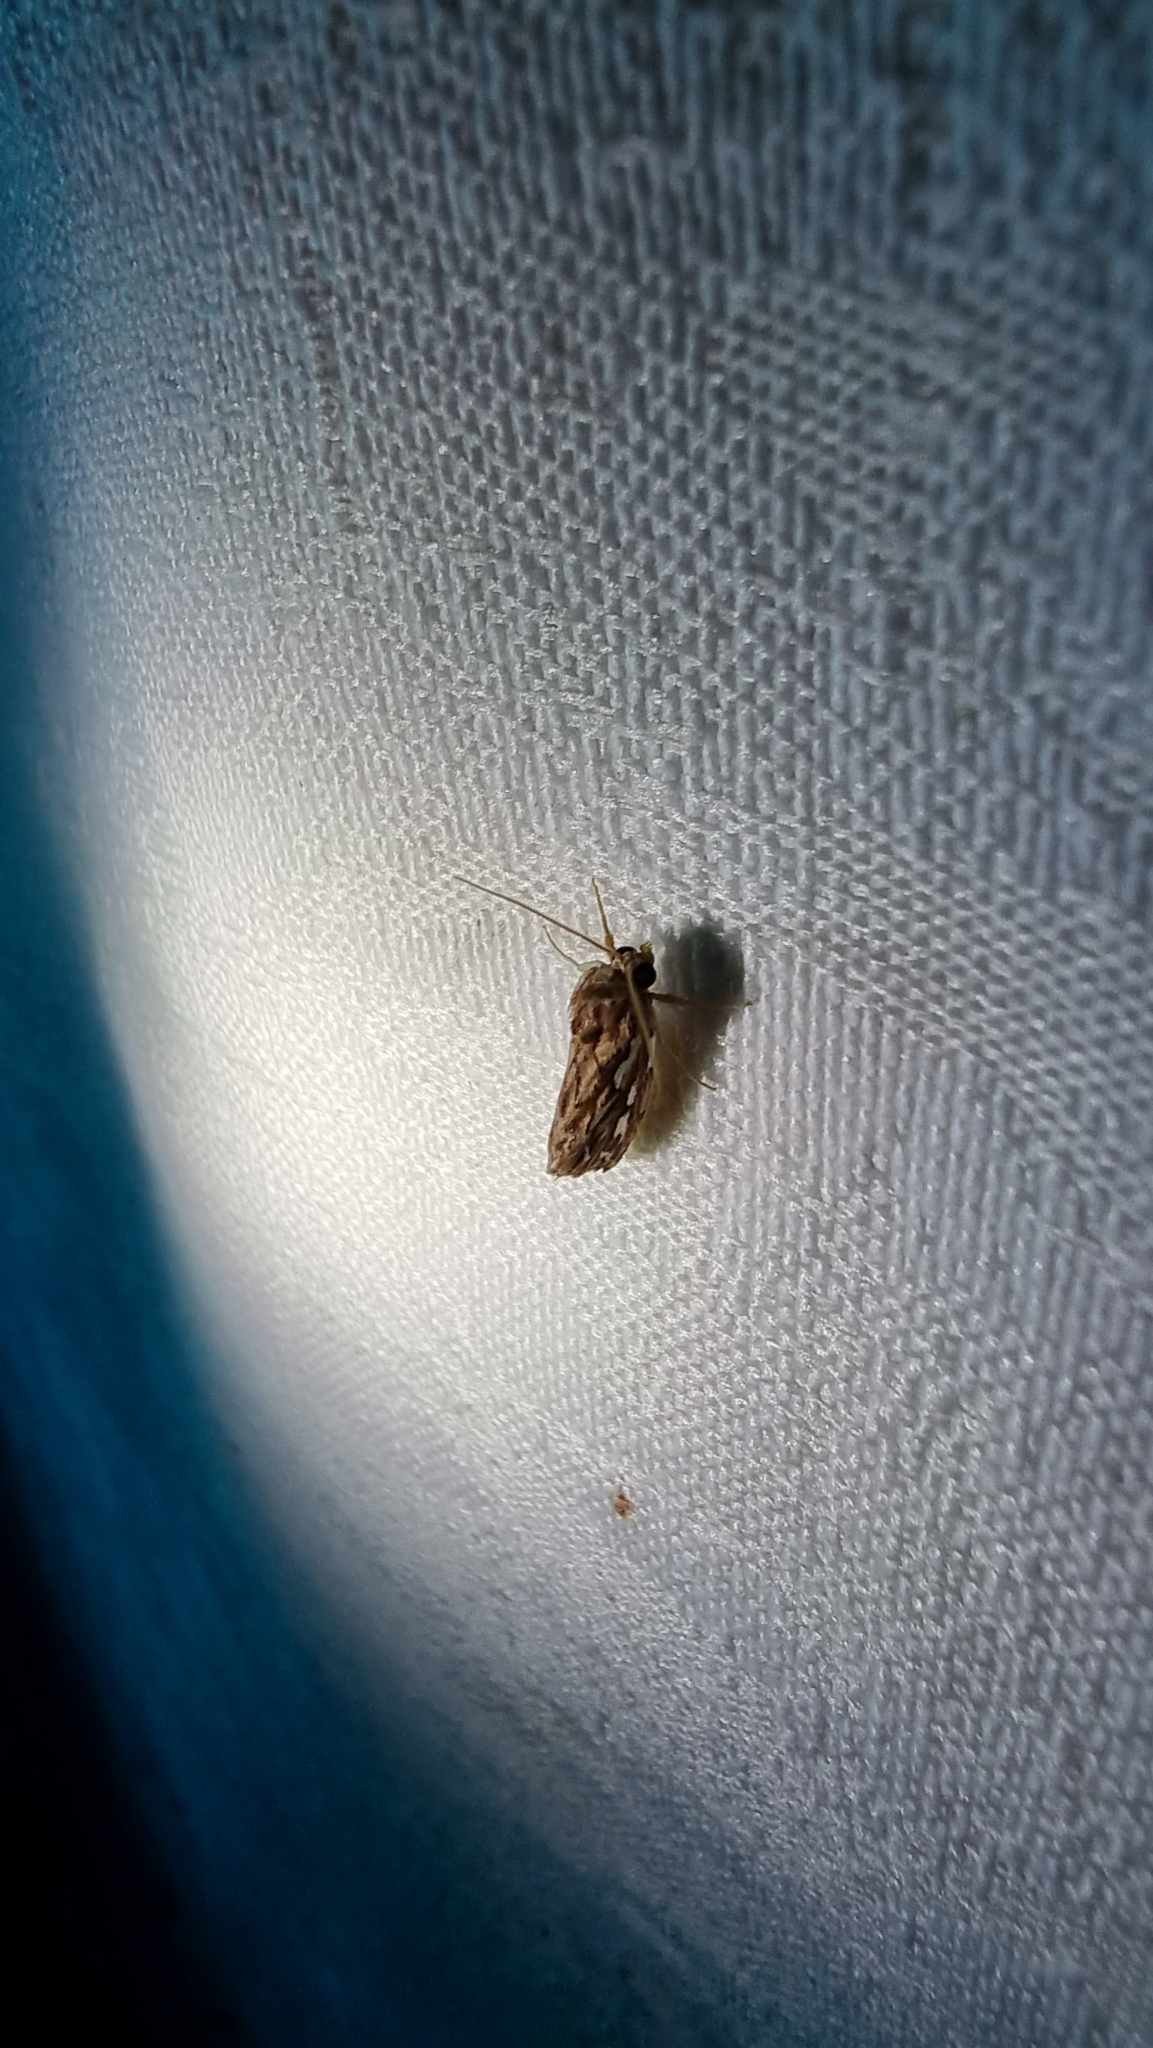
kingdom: Animalia
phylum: Arthropoda
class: Insecta
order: Lepidoptera
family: Erebidae
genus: Meyrickella
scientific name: Meyrickella torquesauria
